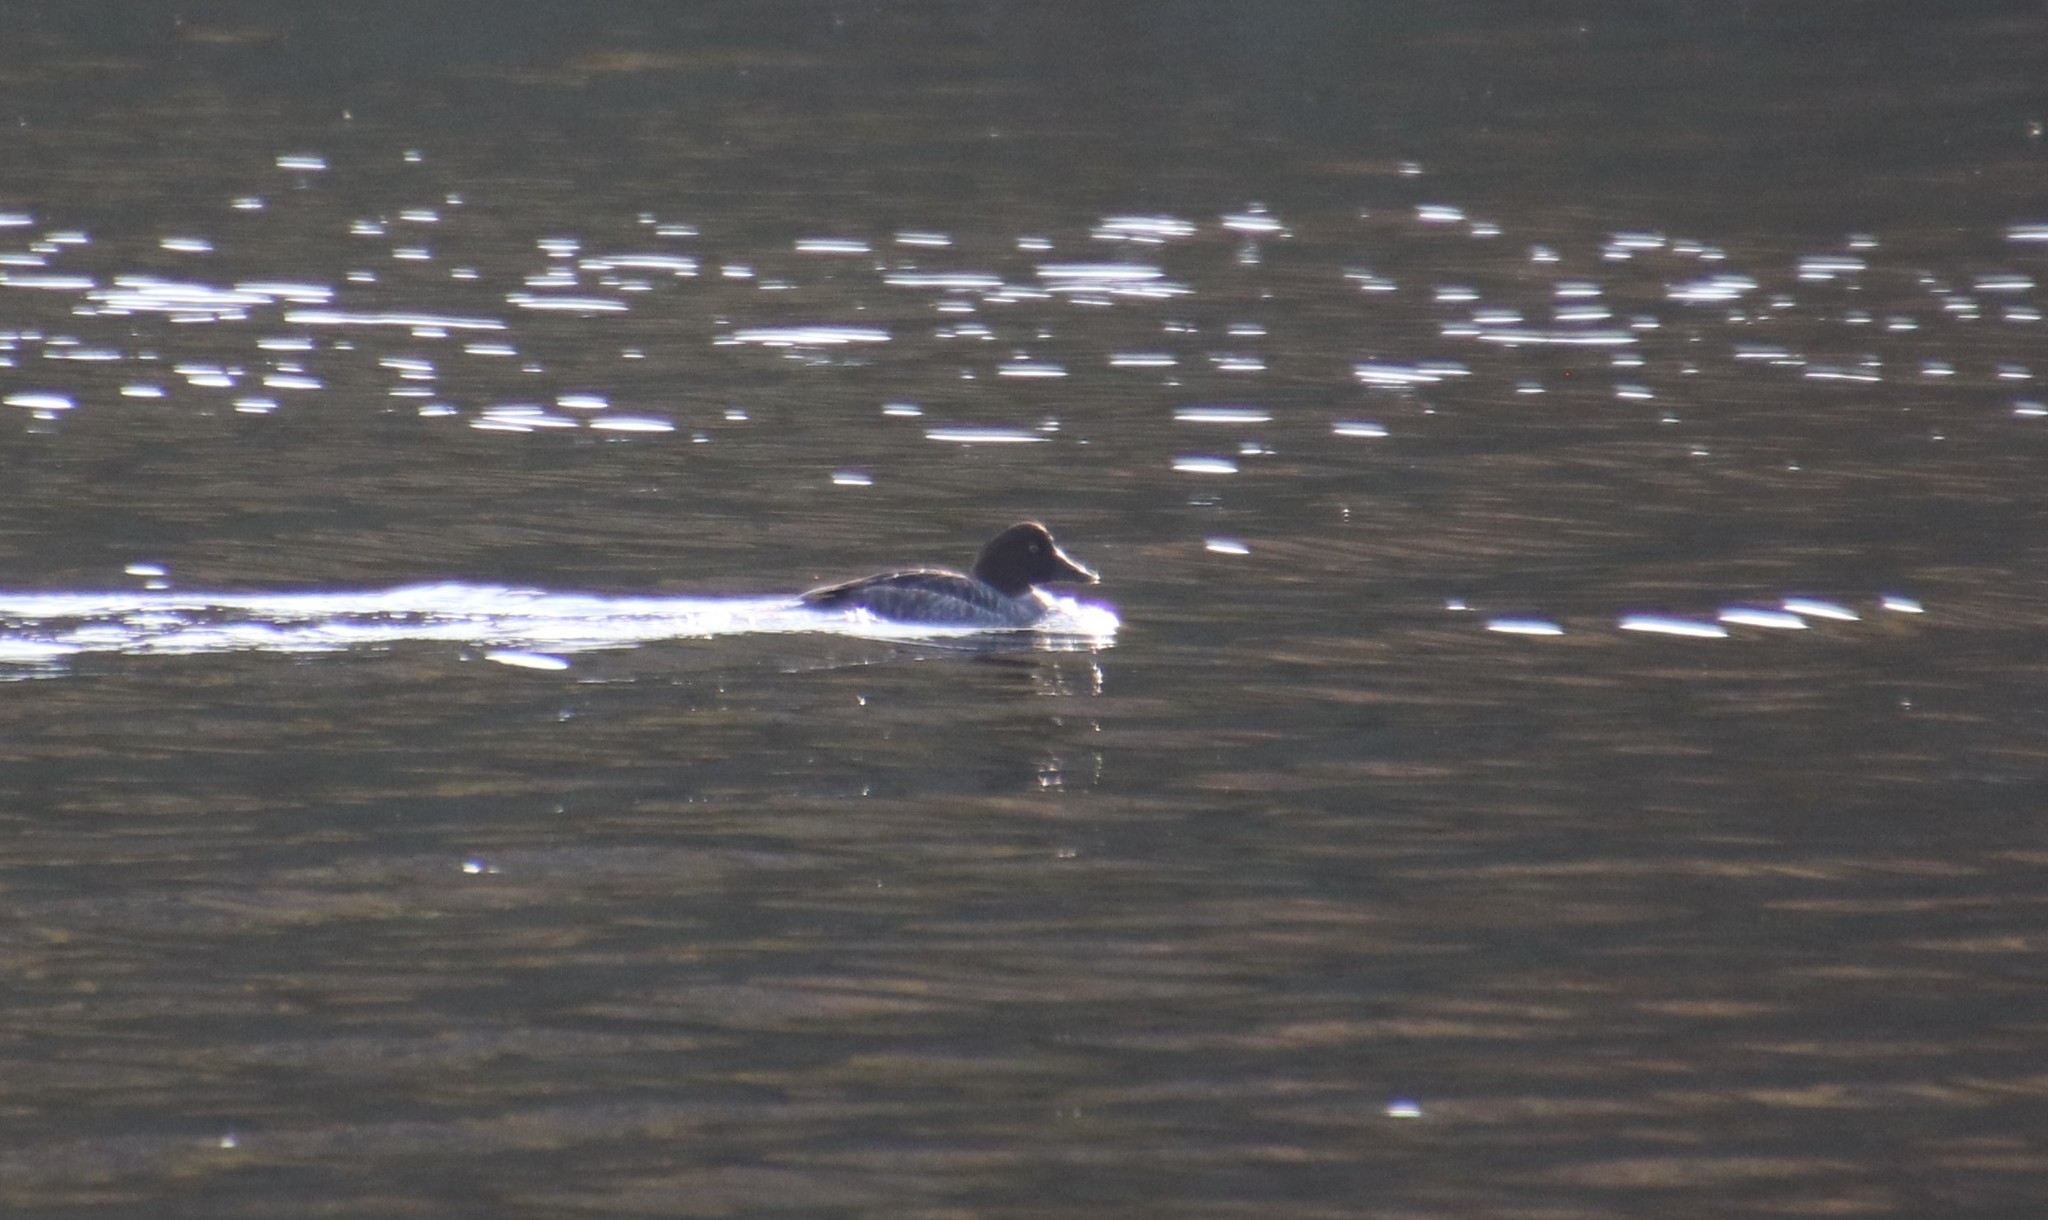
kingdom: Animalia
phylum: Chordata
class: Aves
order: Anseriformes
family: Anatidae
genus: Bucephala
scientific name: Bucephala clangula
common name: Common goldeneye
